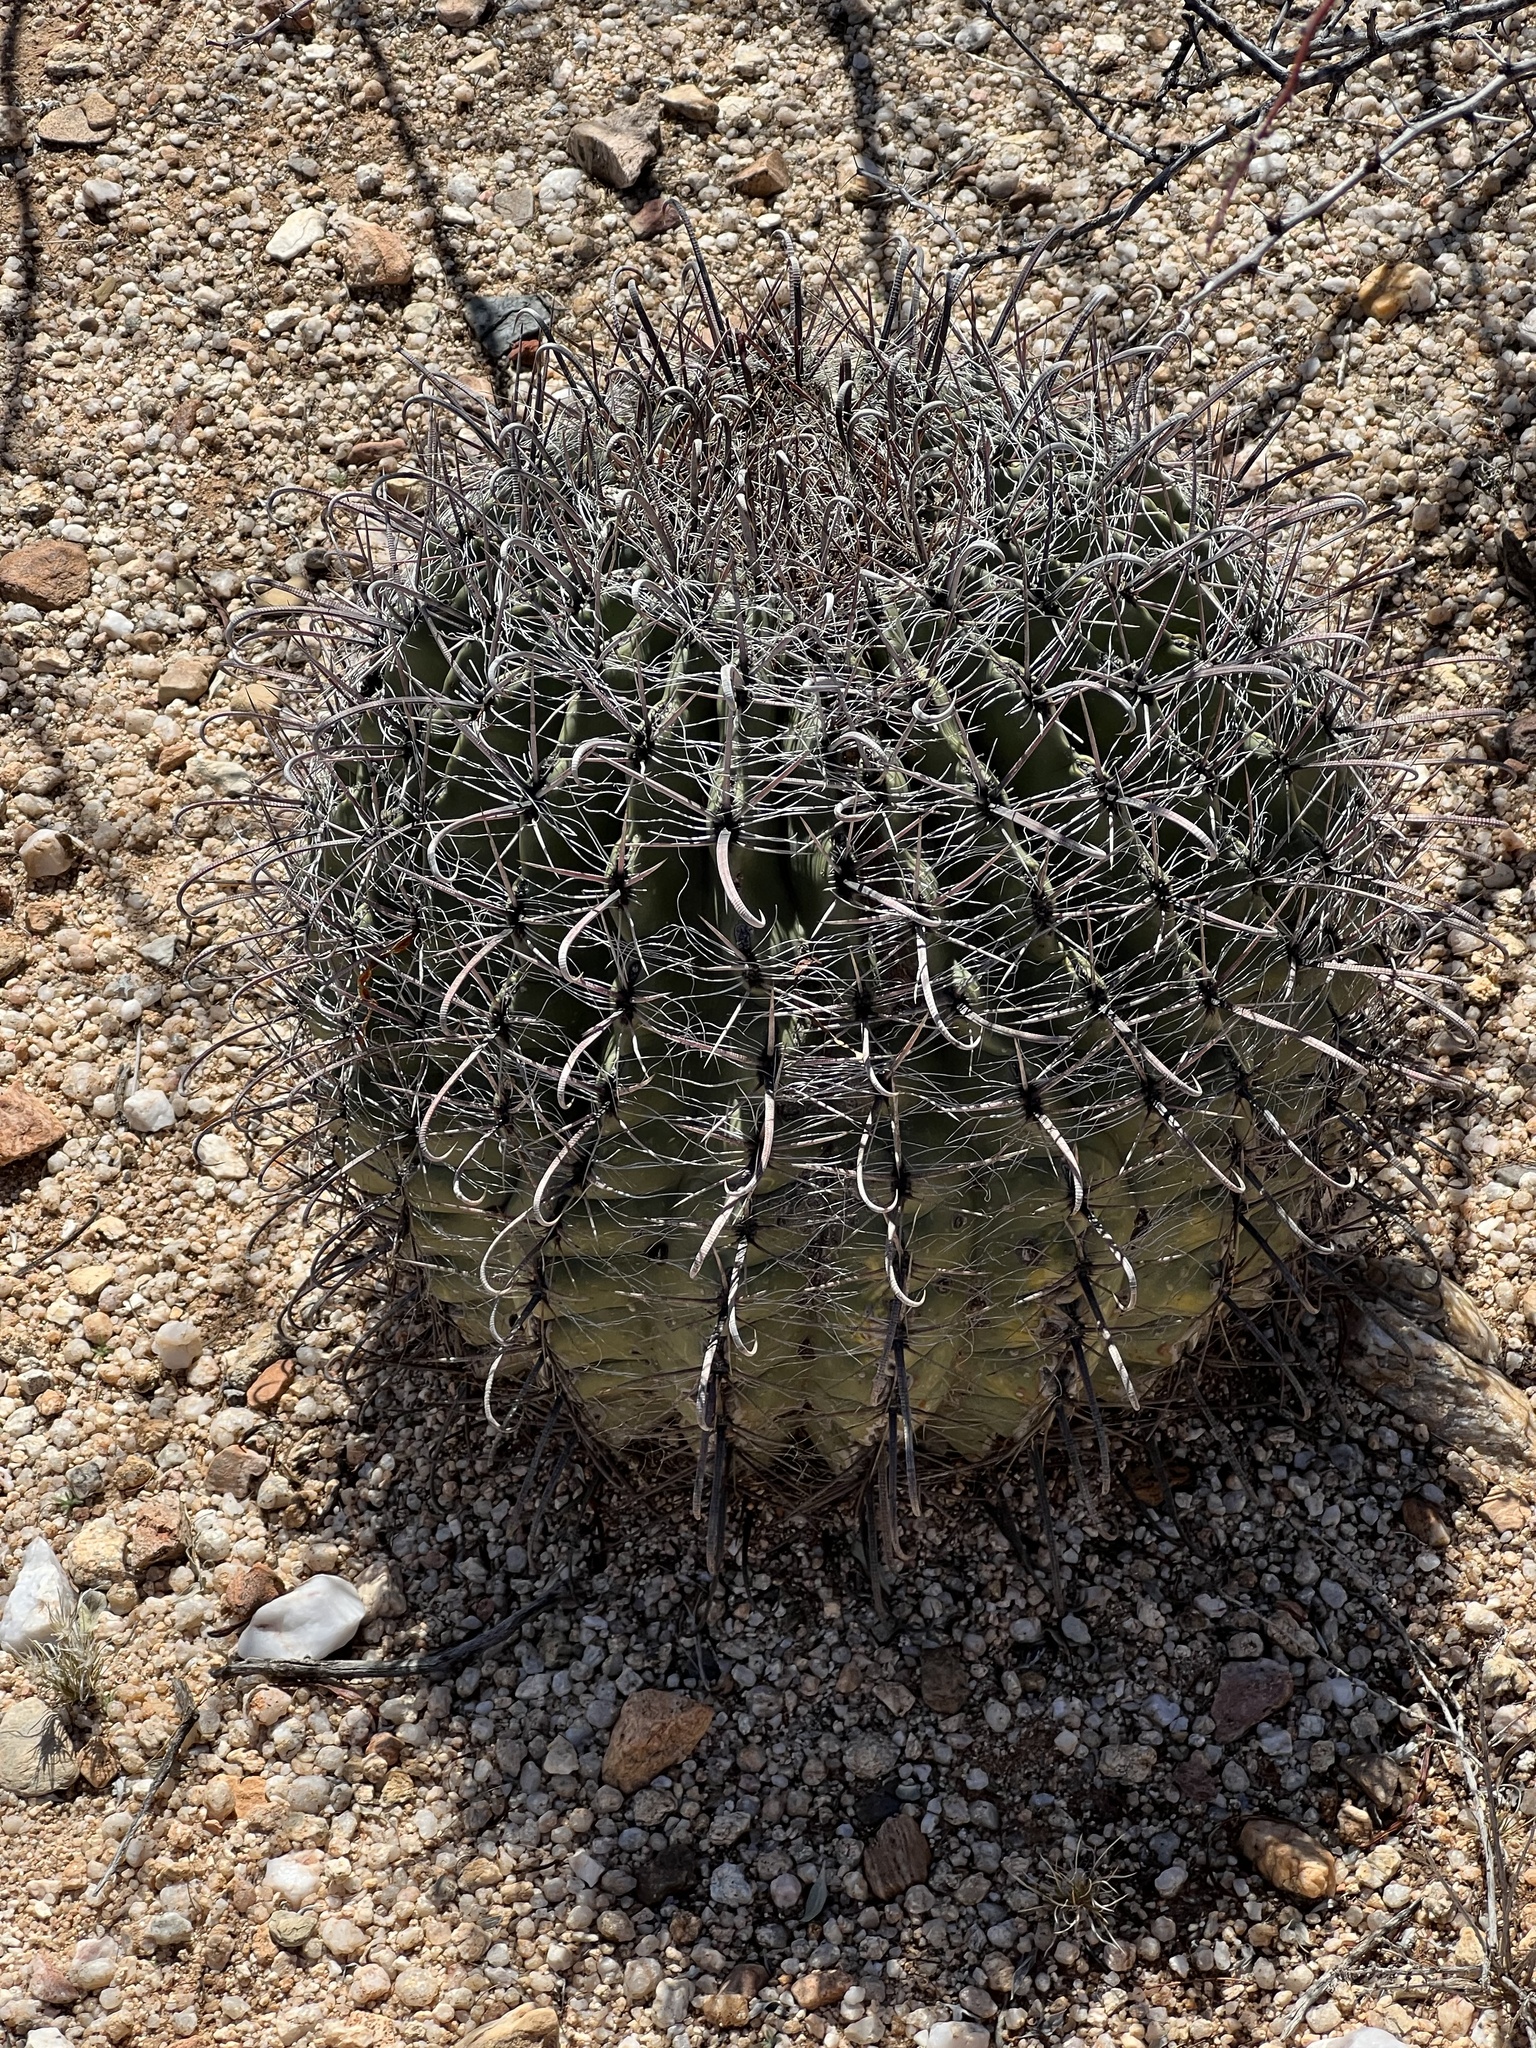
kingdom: Plantae
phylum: Tracheophyta
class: Magnoliopsida
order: Caryophyllales
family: Cactaceae
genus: Ferocactus
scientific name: Ferocactus wislizeni
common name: Candy barrel cactus
